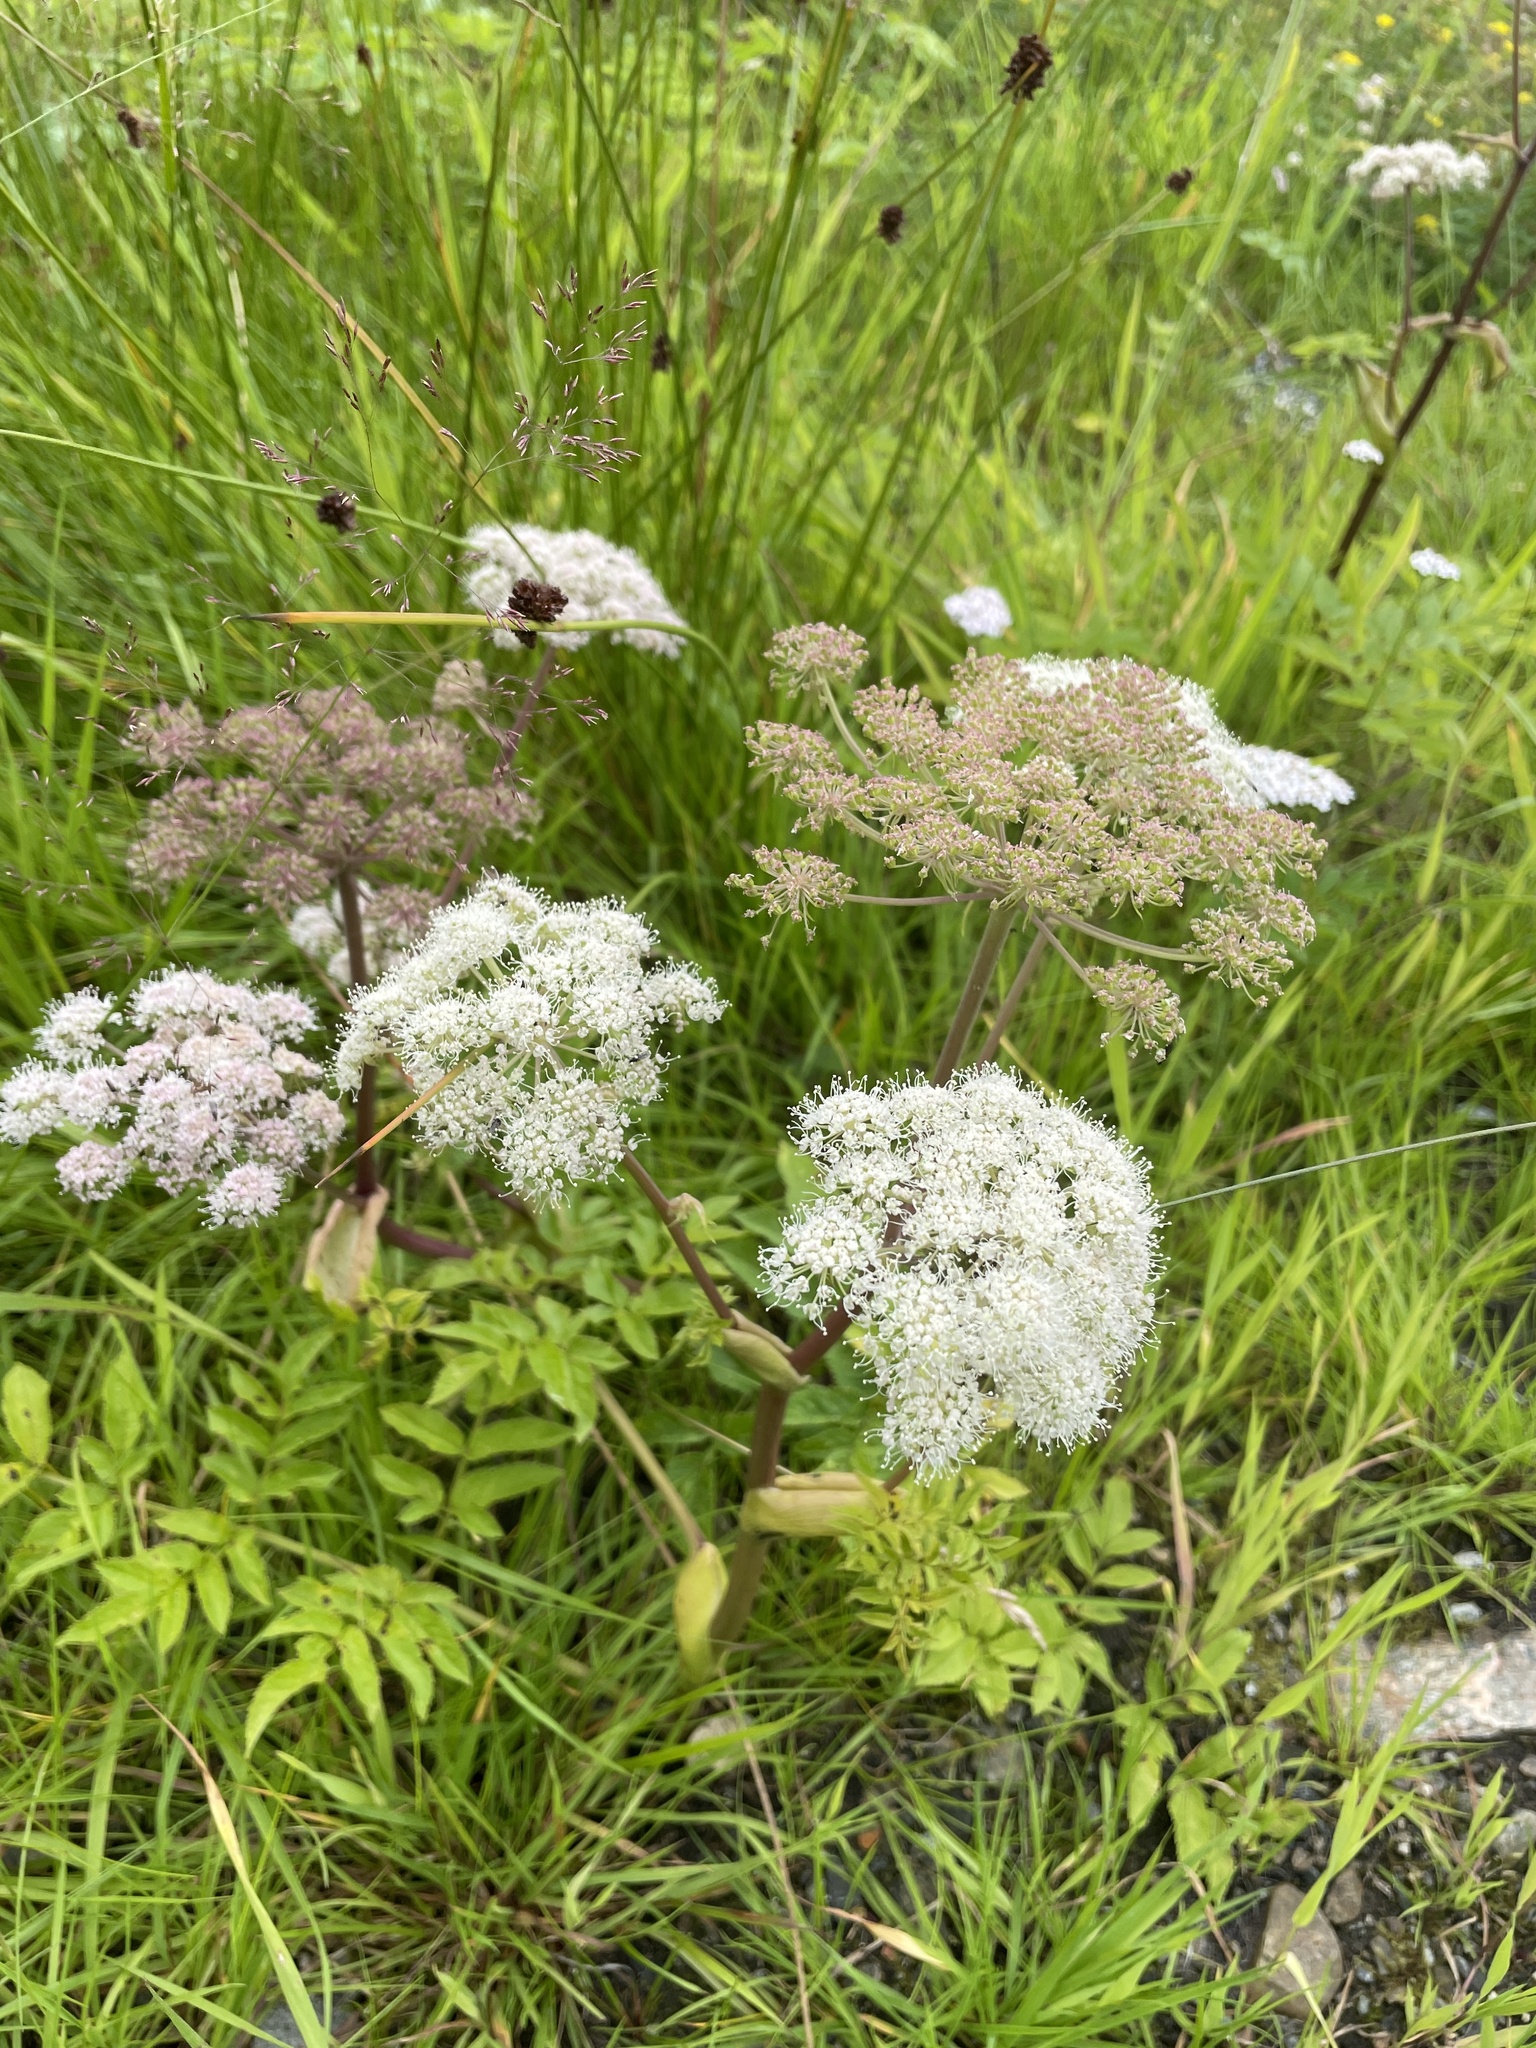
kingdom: Plantae
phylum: Tracheophyta
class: Magnoliopsida
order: Apiales
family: Apiaceae
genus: Angelica
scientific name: Angelica sylvestris
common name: Wild angelica
